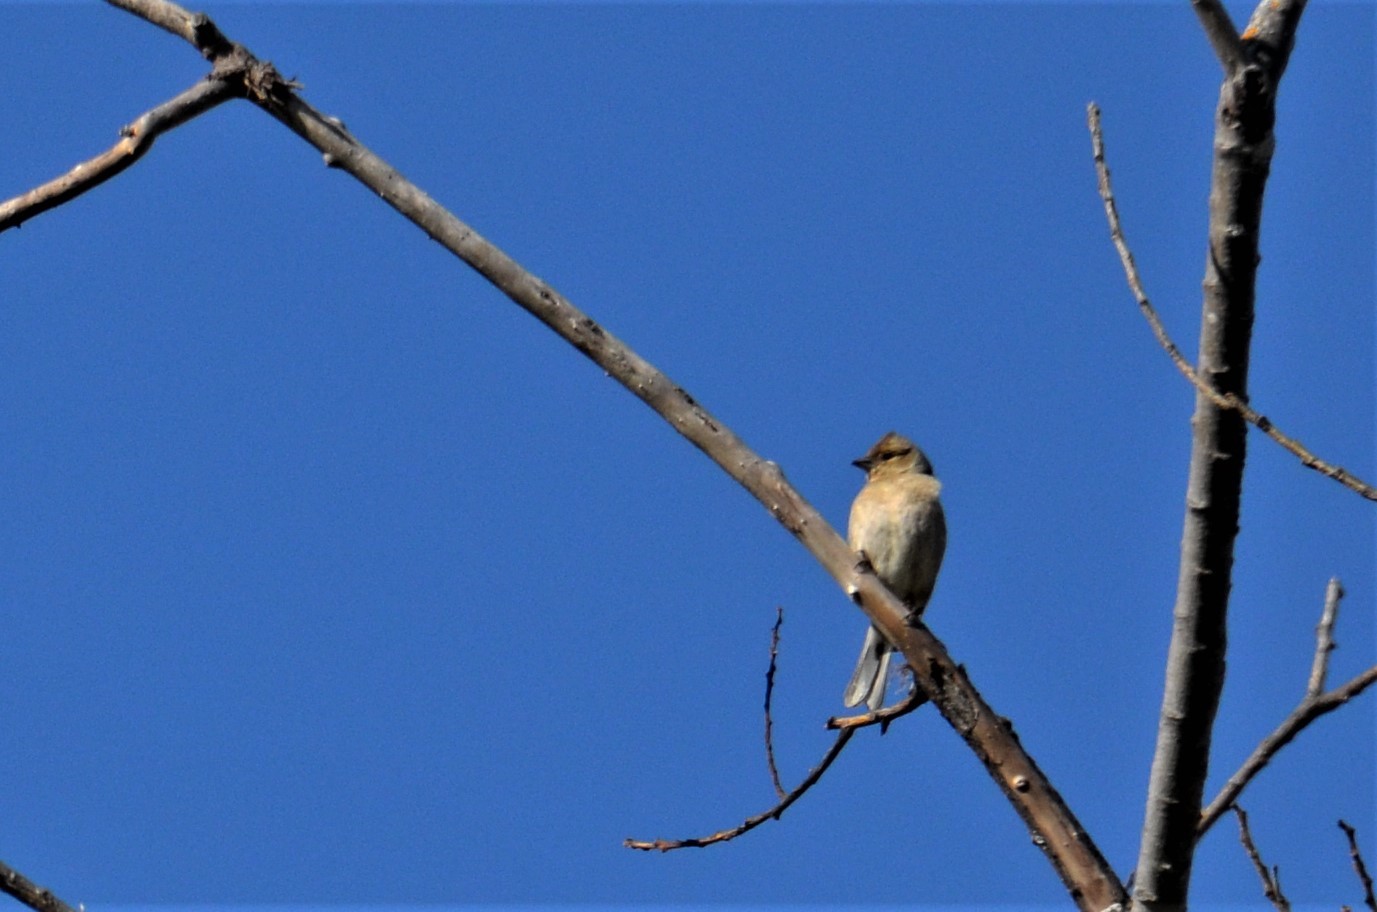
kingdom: Animalia
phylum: Chordata
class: Aves
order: Passeriformes
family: Fringillidae
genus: Fringilla
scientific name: Fringilla coelebs
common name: Common chaffinch
